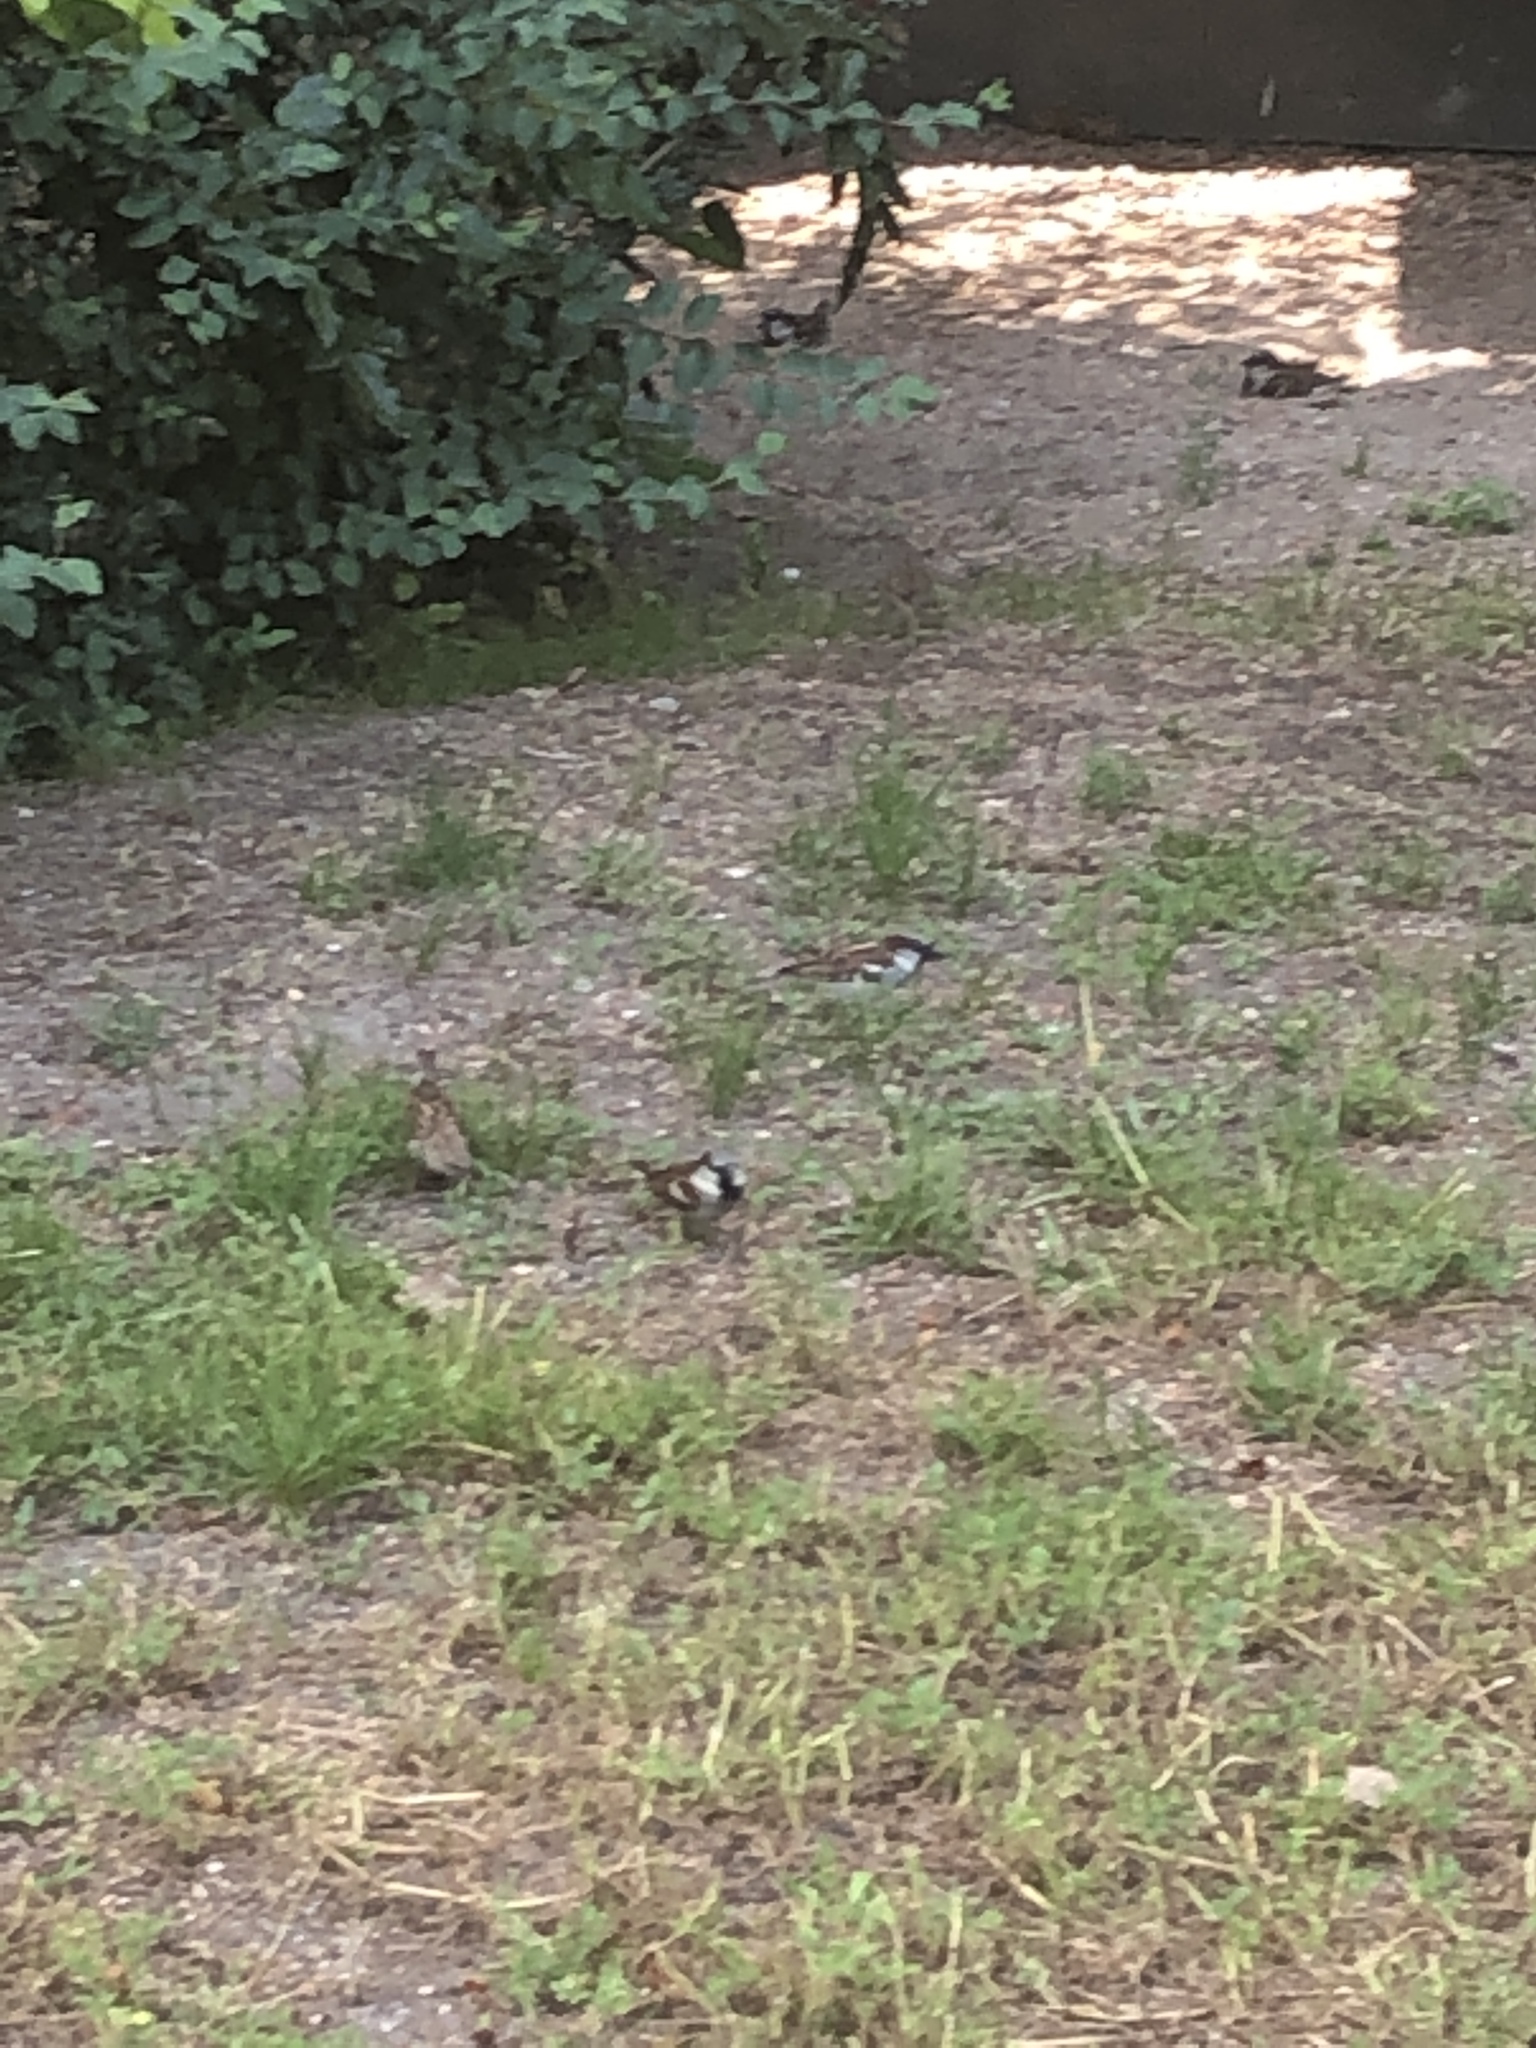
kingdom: Animalia
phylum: Chordata
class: Aves
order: Passeriformes
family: Passeridae
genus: Passer
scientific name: Passer domesticus
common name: House sparrow
